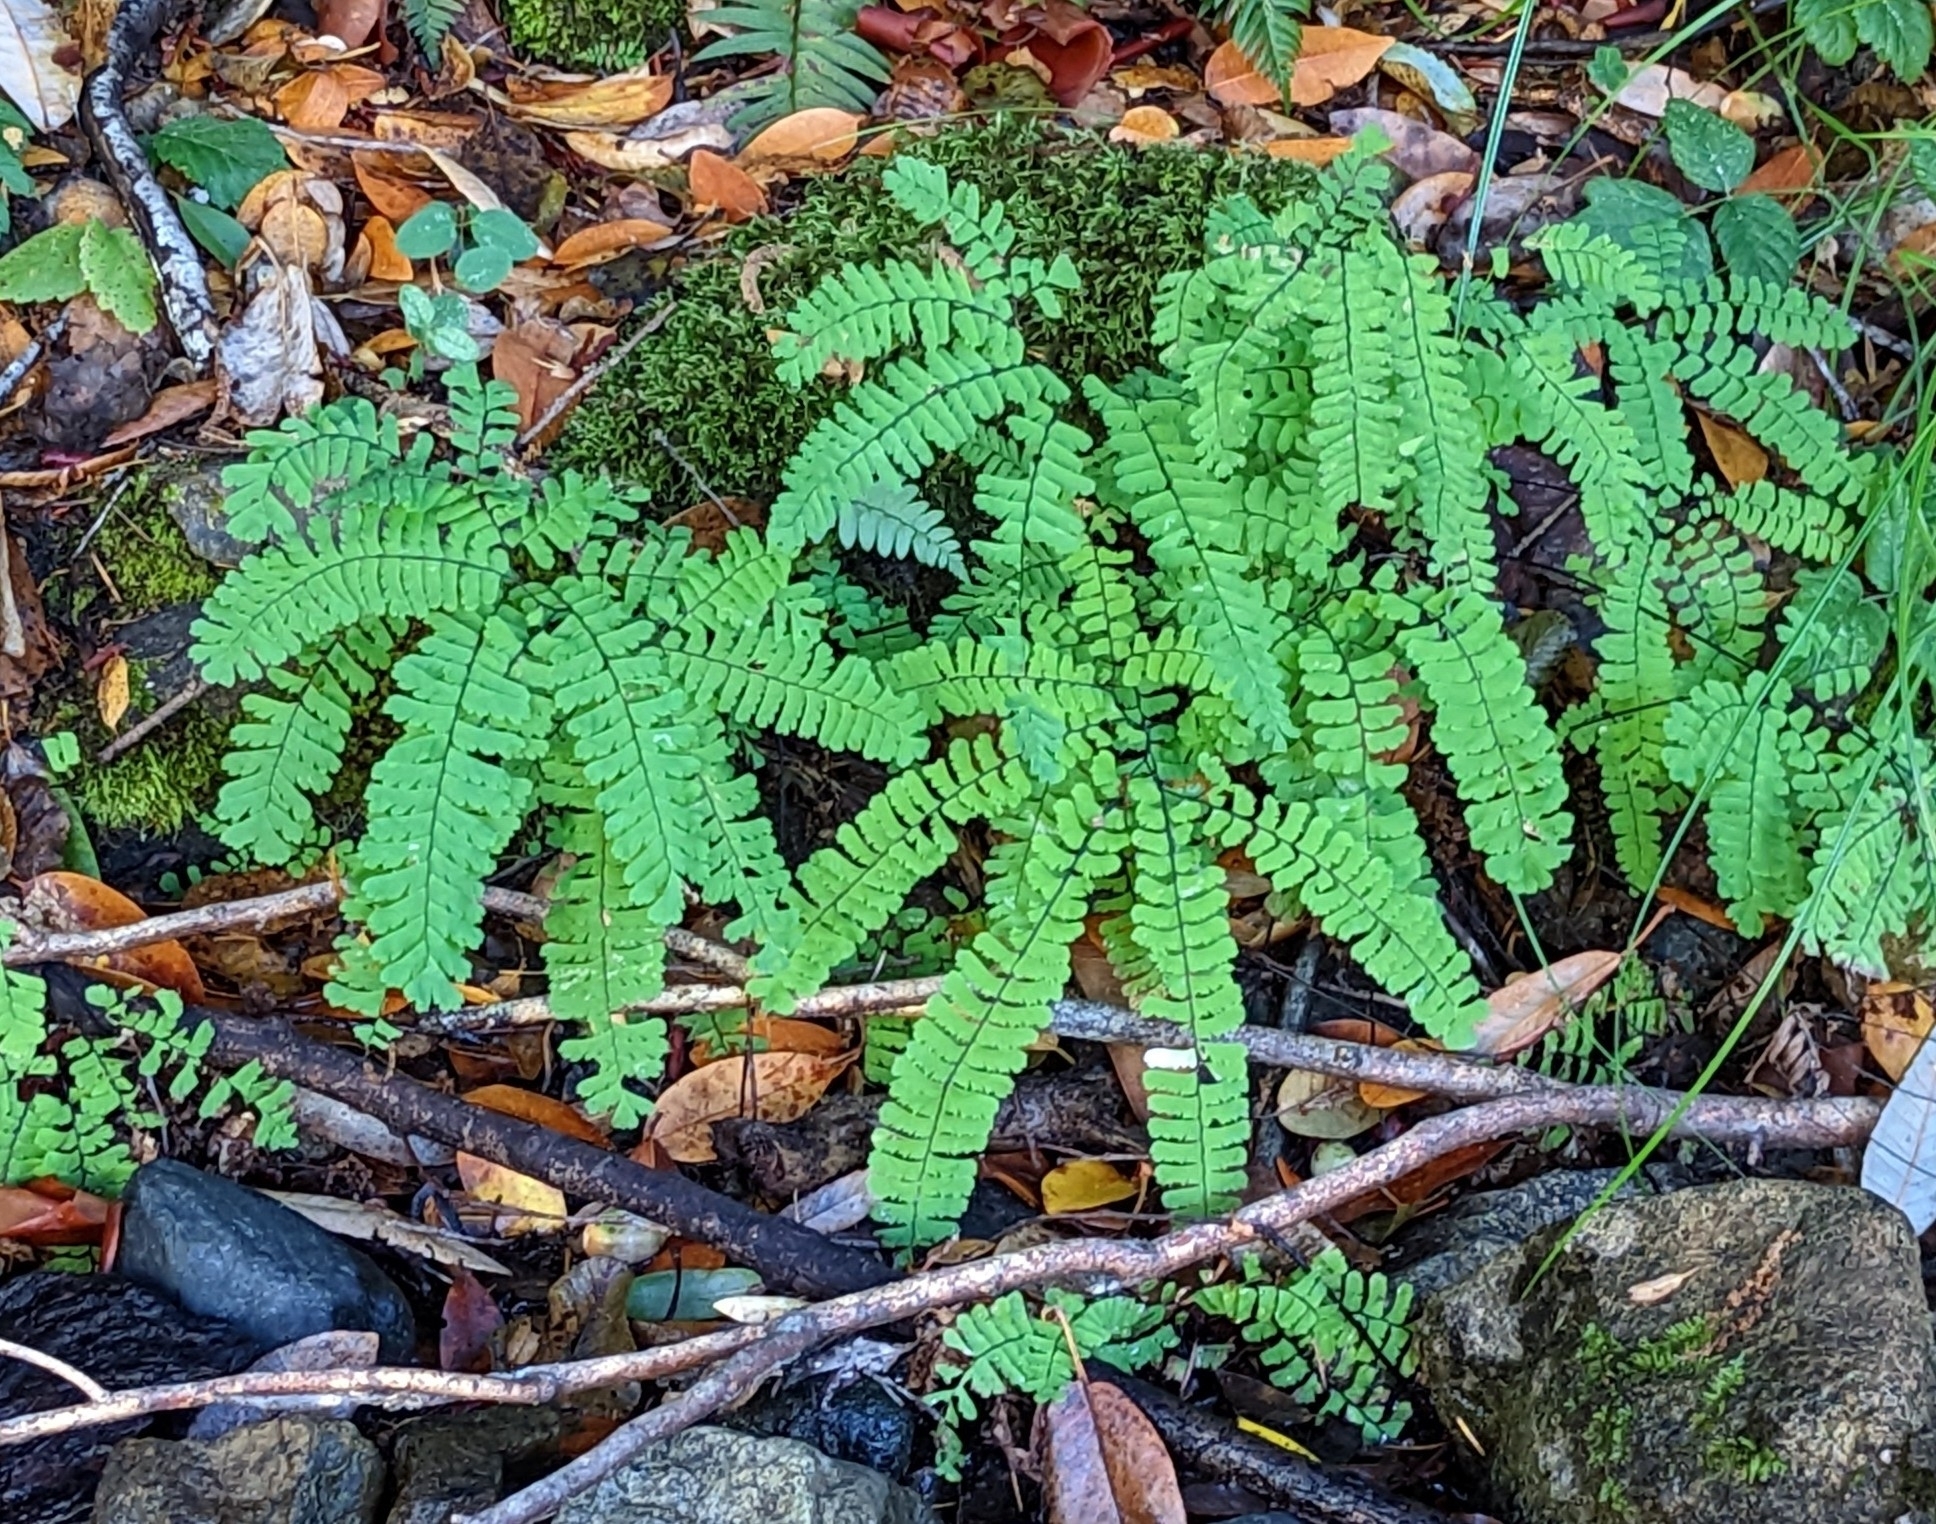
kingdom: Plantae
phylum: Tracheophyta
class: Polypodiopsida
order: Polypodiales
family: Pteridaceae
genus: Adiantum
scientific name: Adiantum aleuticum
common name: Aleutian maidenhair fern
